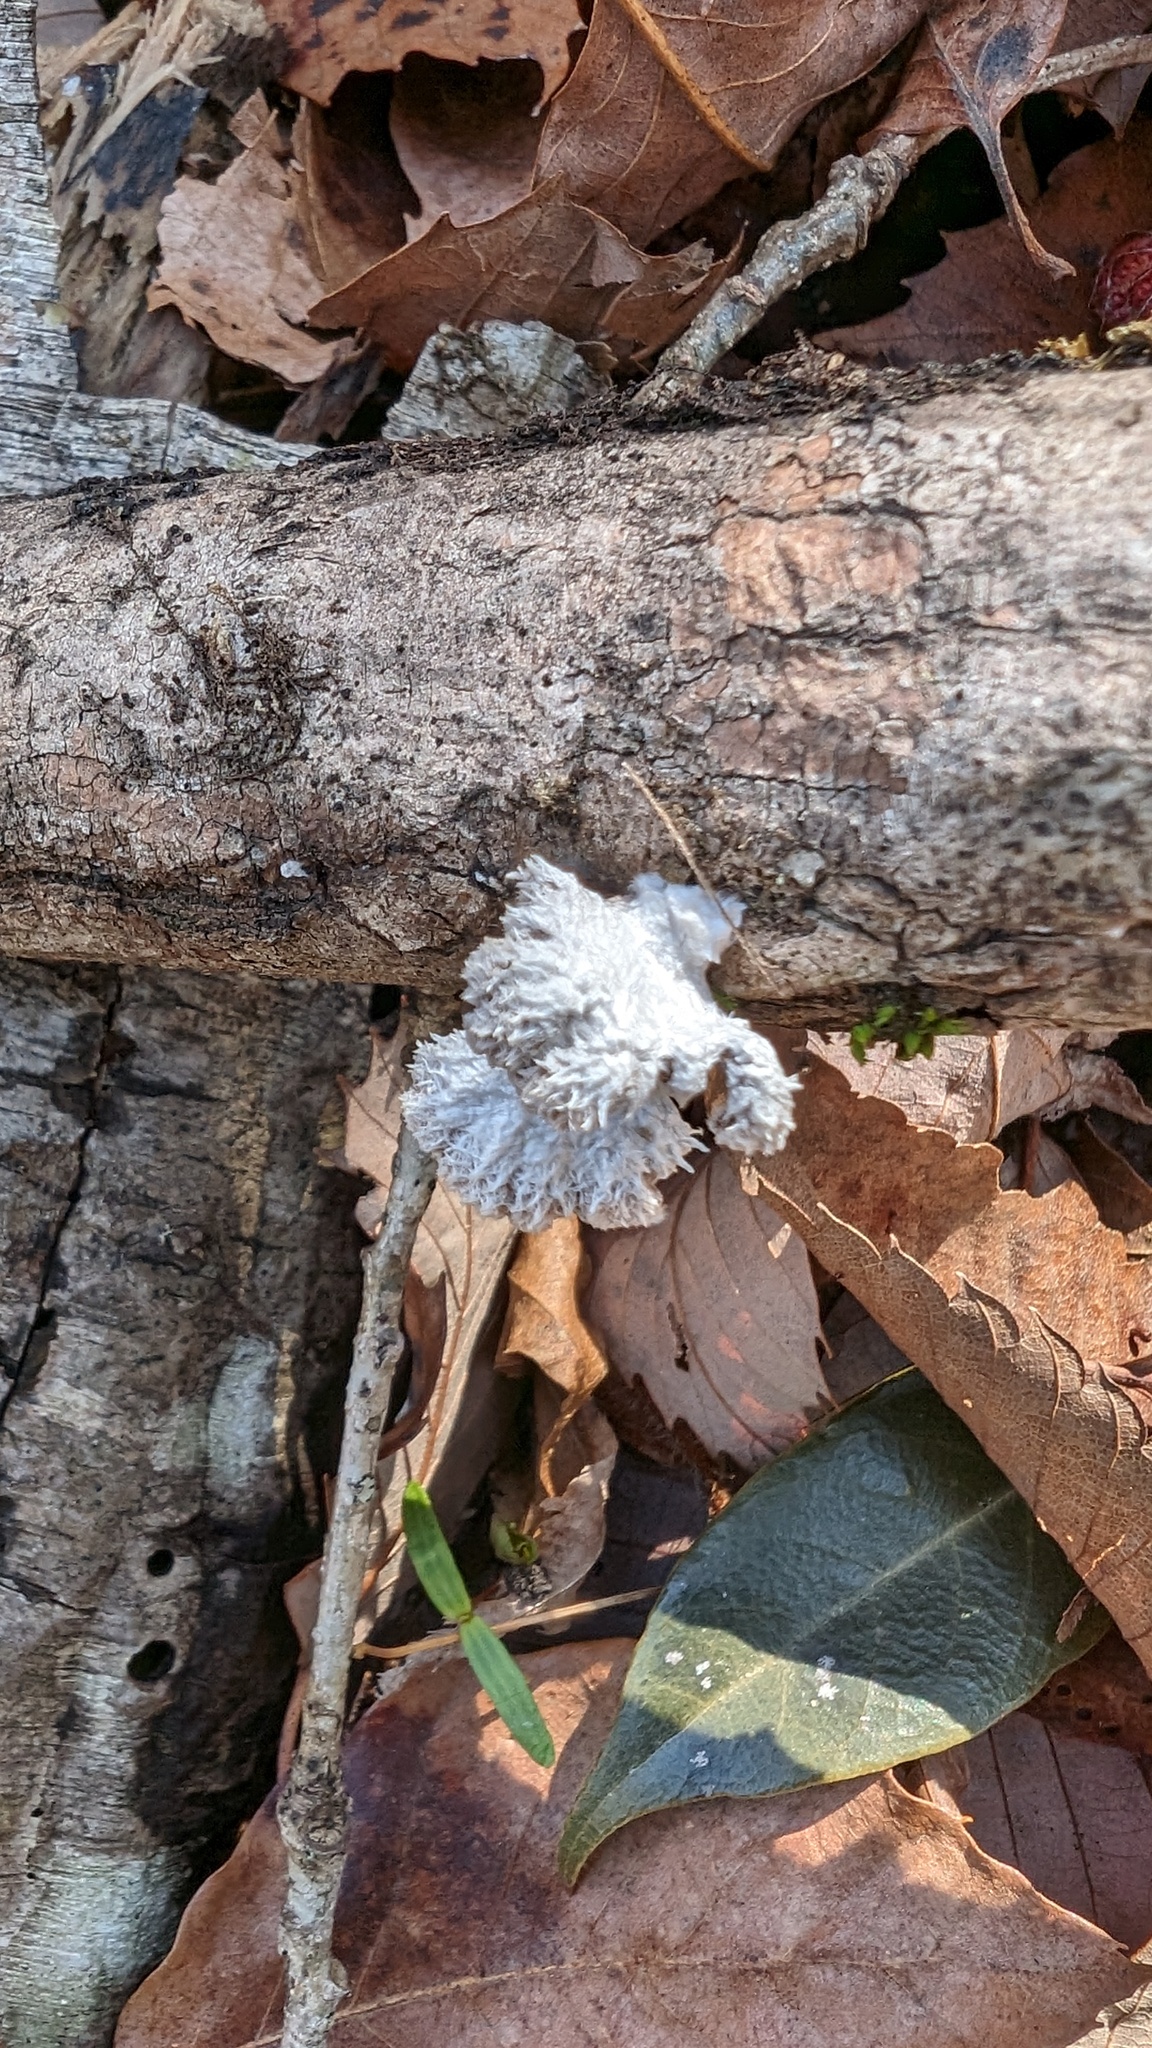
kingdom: Fungi
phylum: Basidiomycota
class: Agaricomycetes
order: Agaricales
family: Schizophyllaceae
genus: Schizophyllum
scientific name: Schizophyllum commune
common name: Common porecrust
